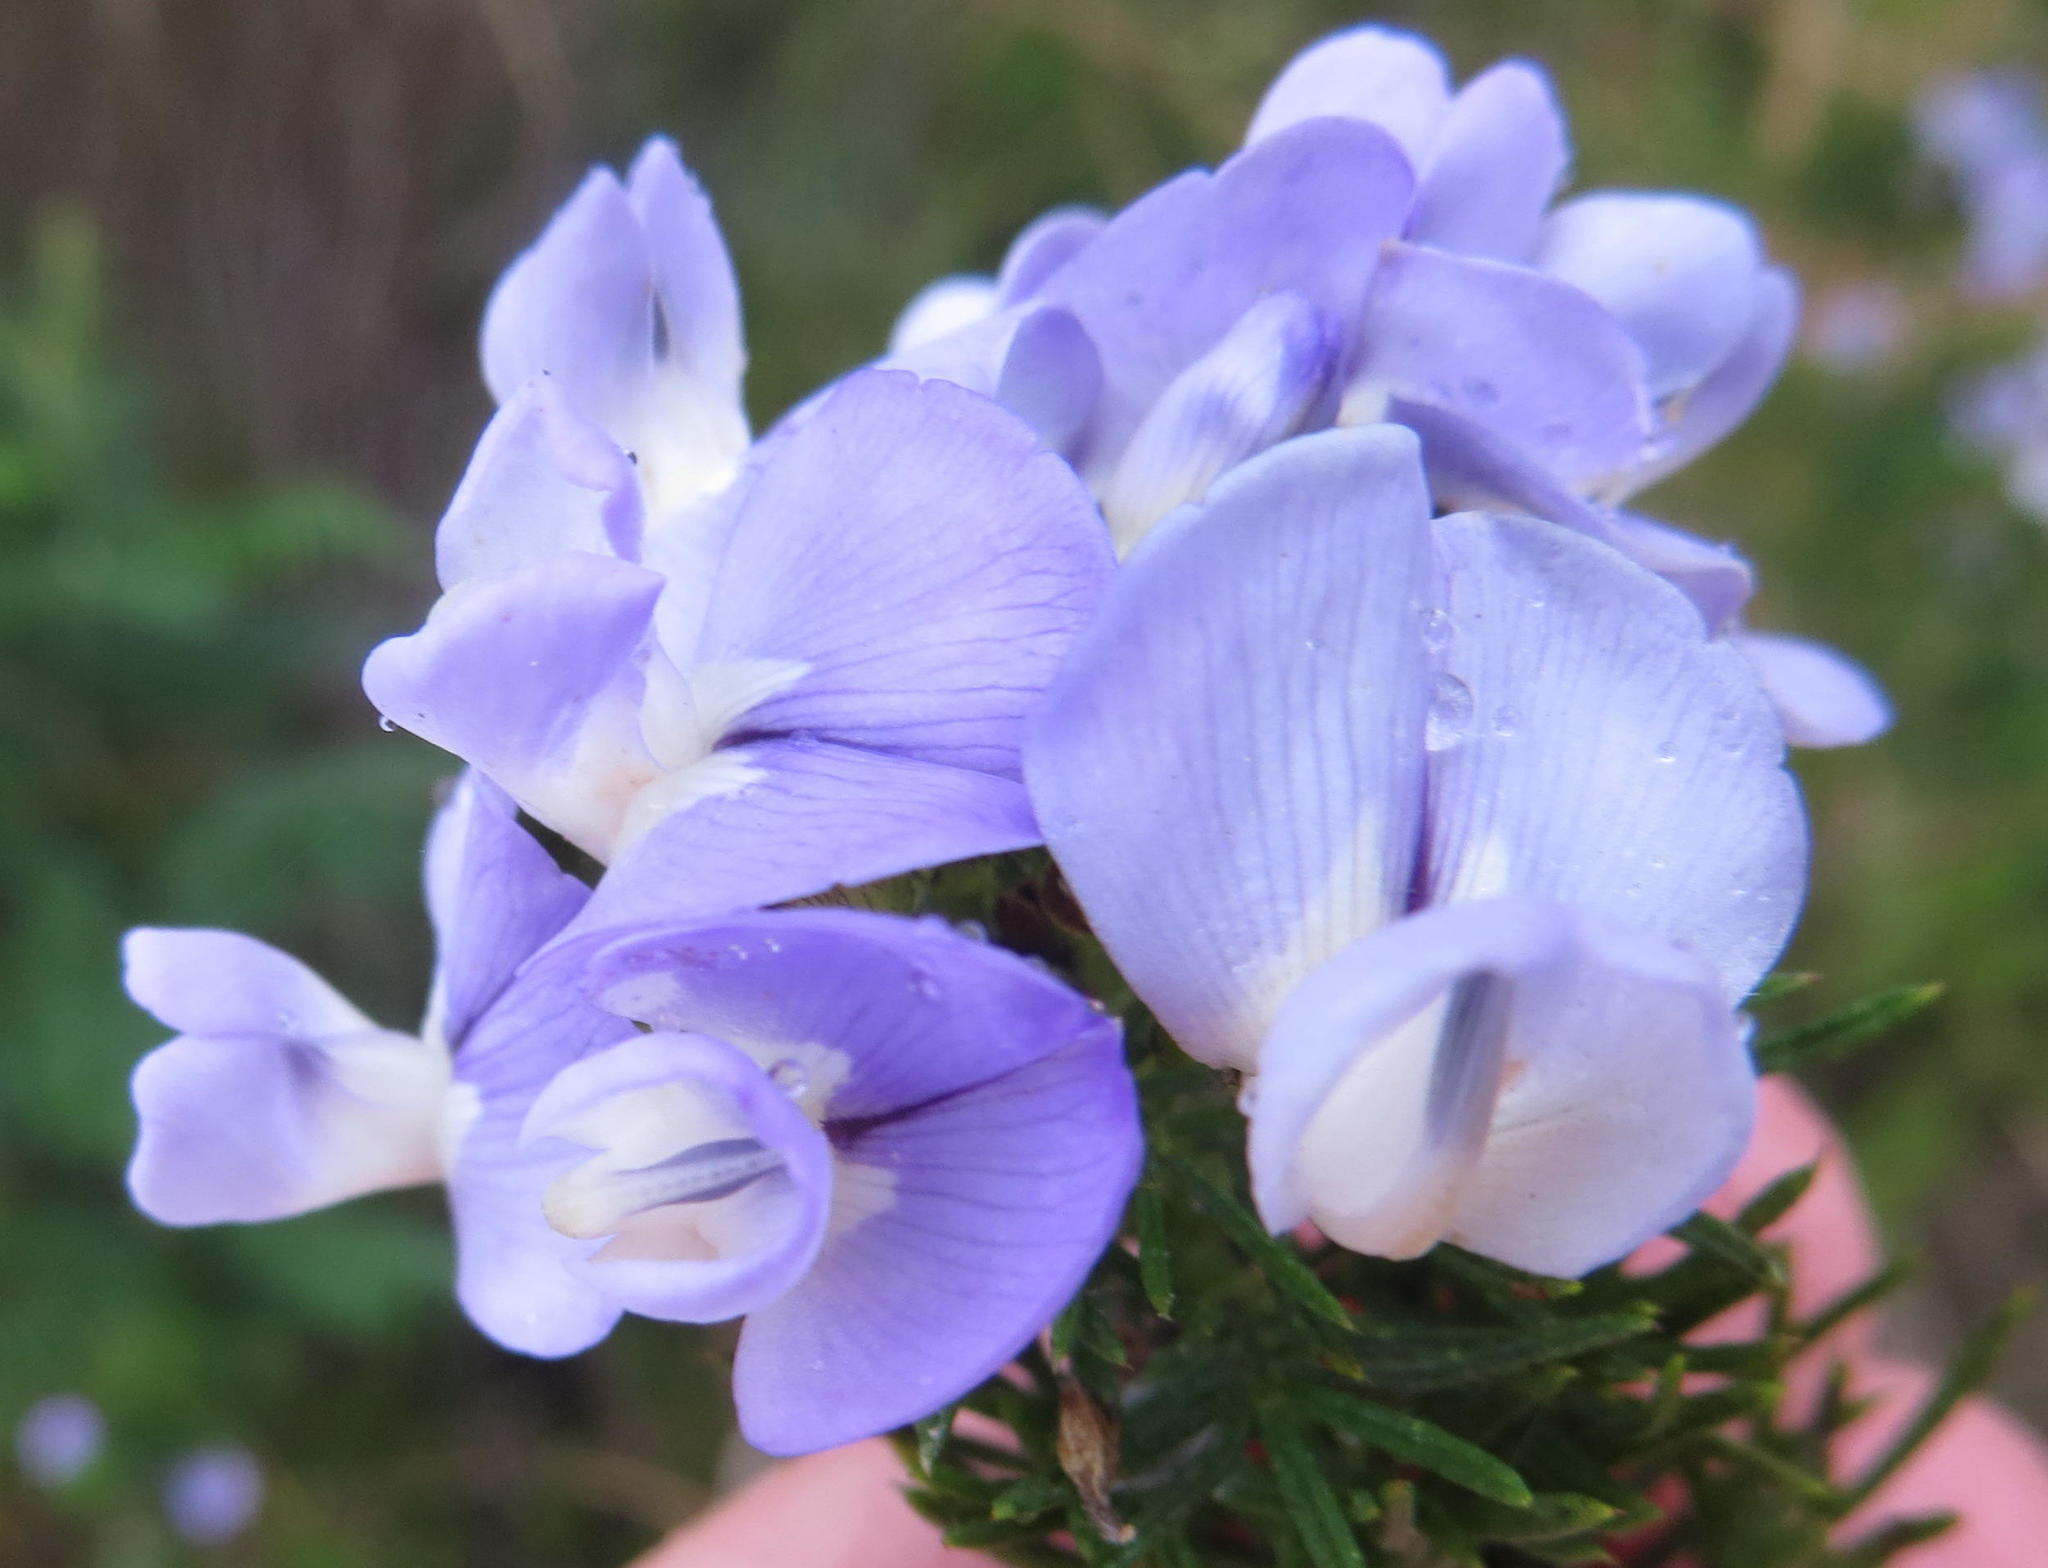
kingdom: Plantae
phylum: Tracheophyta
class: Magnoliopsida
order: Fabales
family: Fabaceae
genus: Psoralea
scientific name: Psoralea affinis
